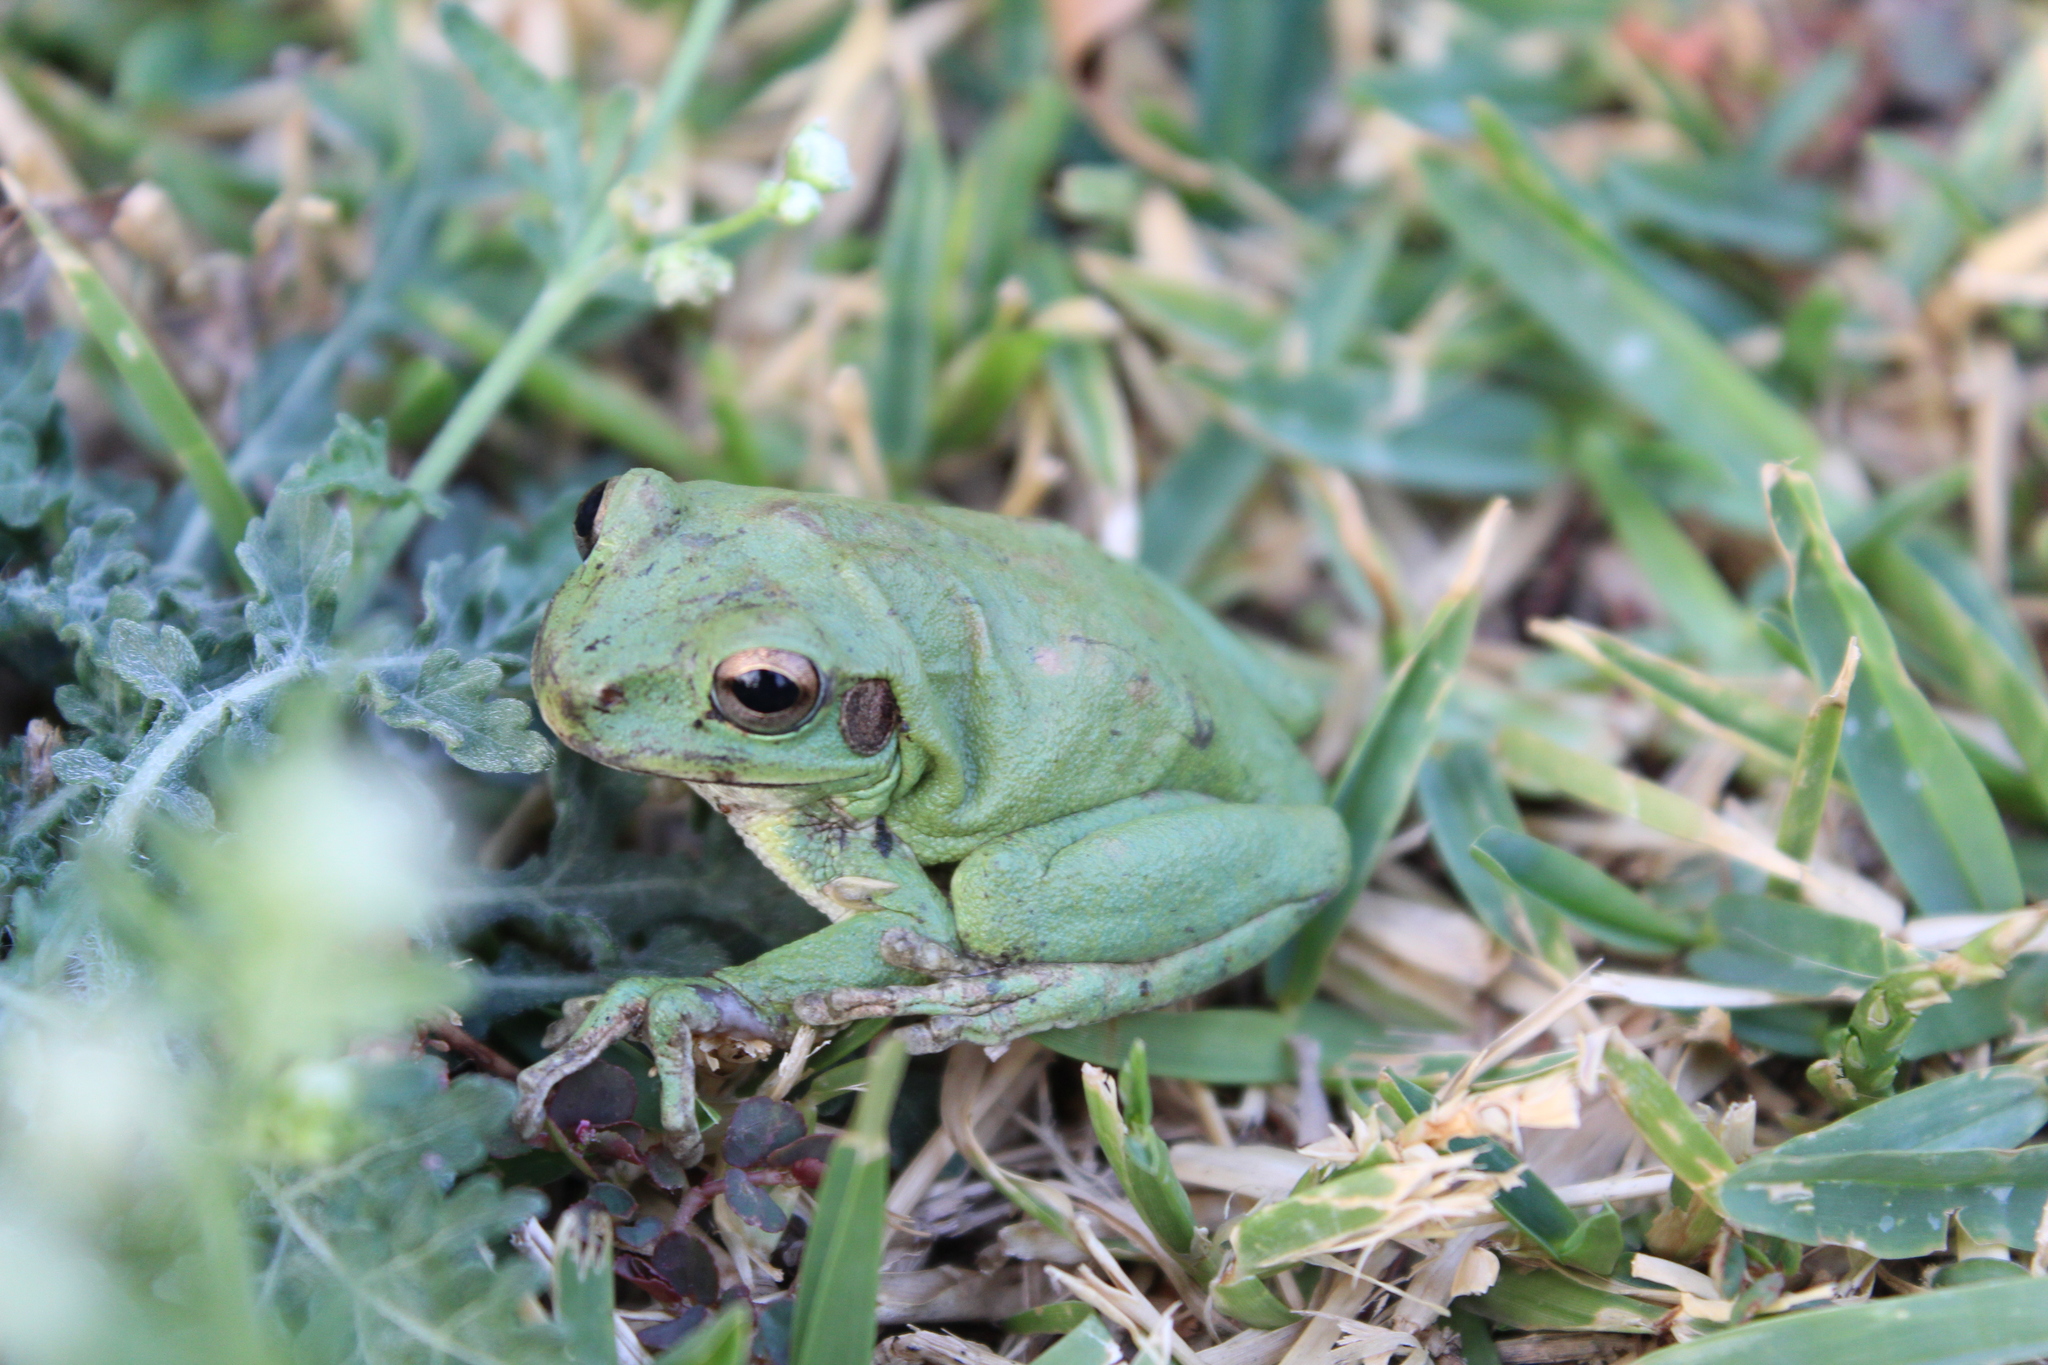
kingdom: Animalia
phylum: Chordata
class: Amphibia
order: Anura
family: Hylidae
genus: Smilisca
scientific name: Smilisca baudinii
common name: Mexican smilisca
